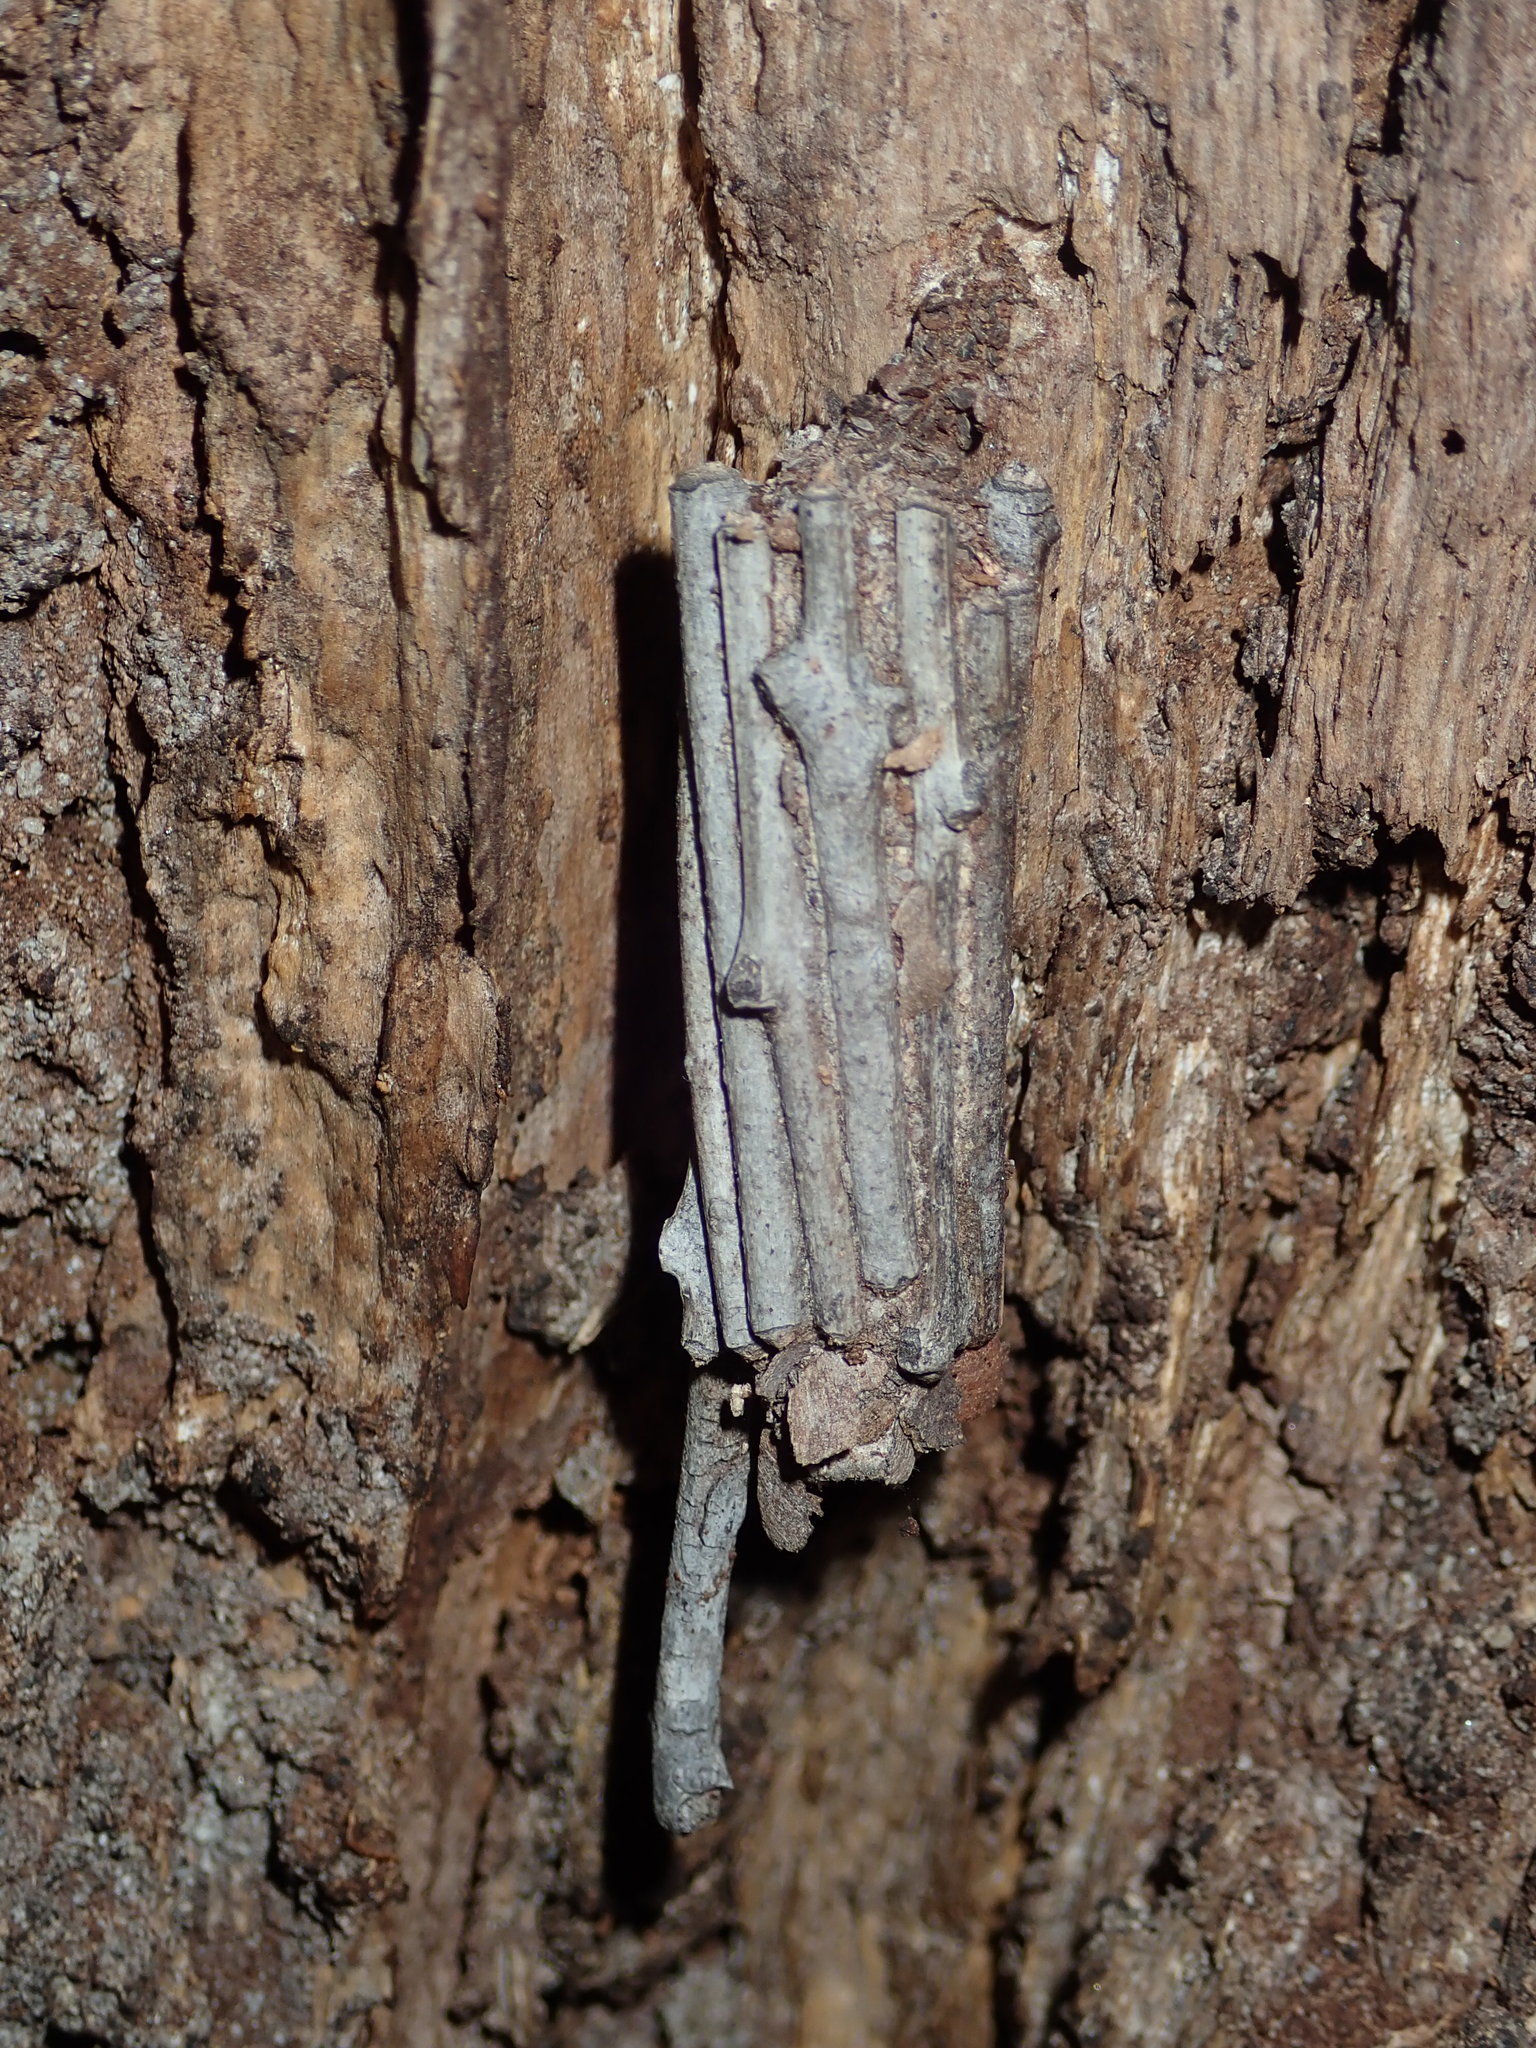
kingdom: Animalia
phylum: Arthropoda
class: Insecta
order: Lepidoptera
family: Psychidae
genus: Clania
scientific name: Clania ignobilis
